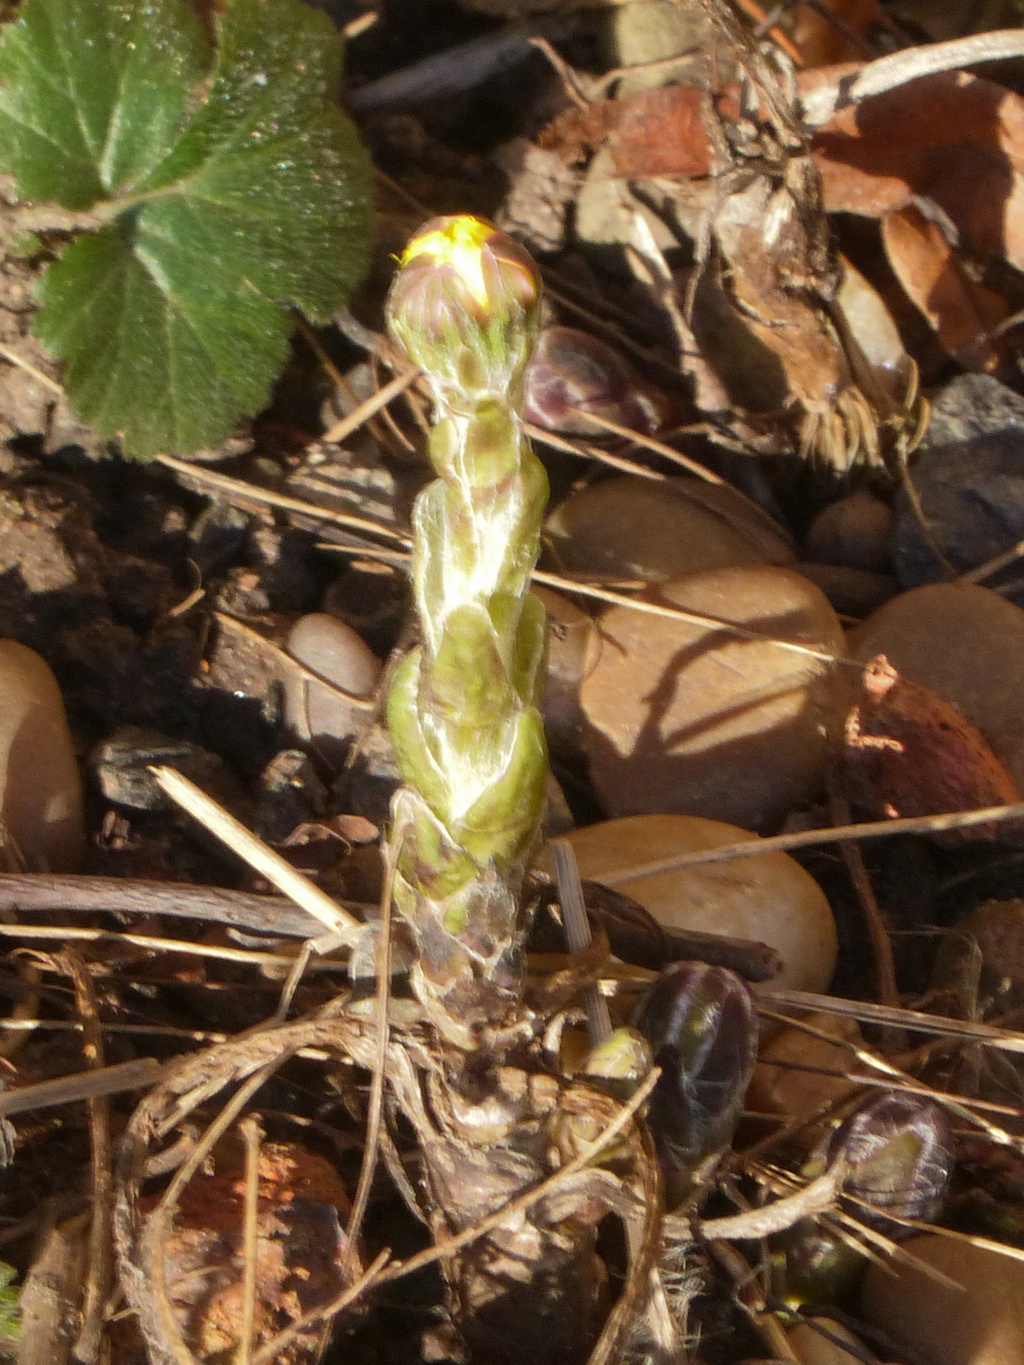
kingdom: Plantae
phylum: Tracheophyta
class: Magnoliopsida
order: Asterales
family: Asteraceae
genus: Tussilago
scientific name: Tussilago farfara
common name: Coltsfoot
